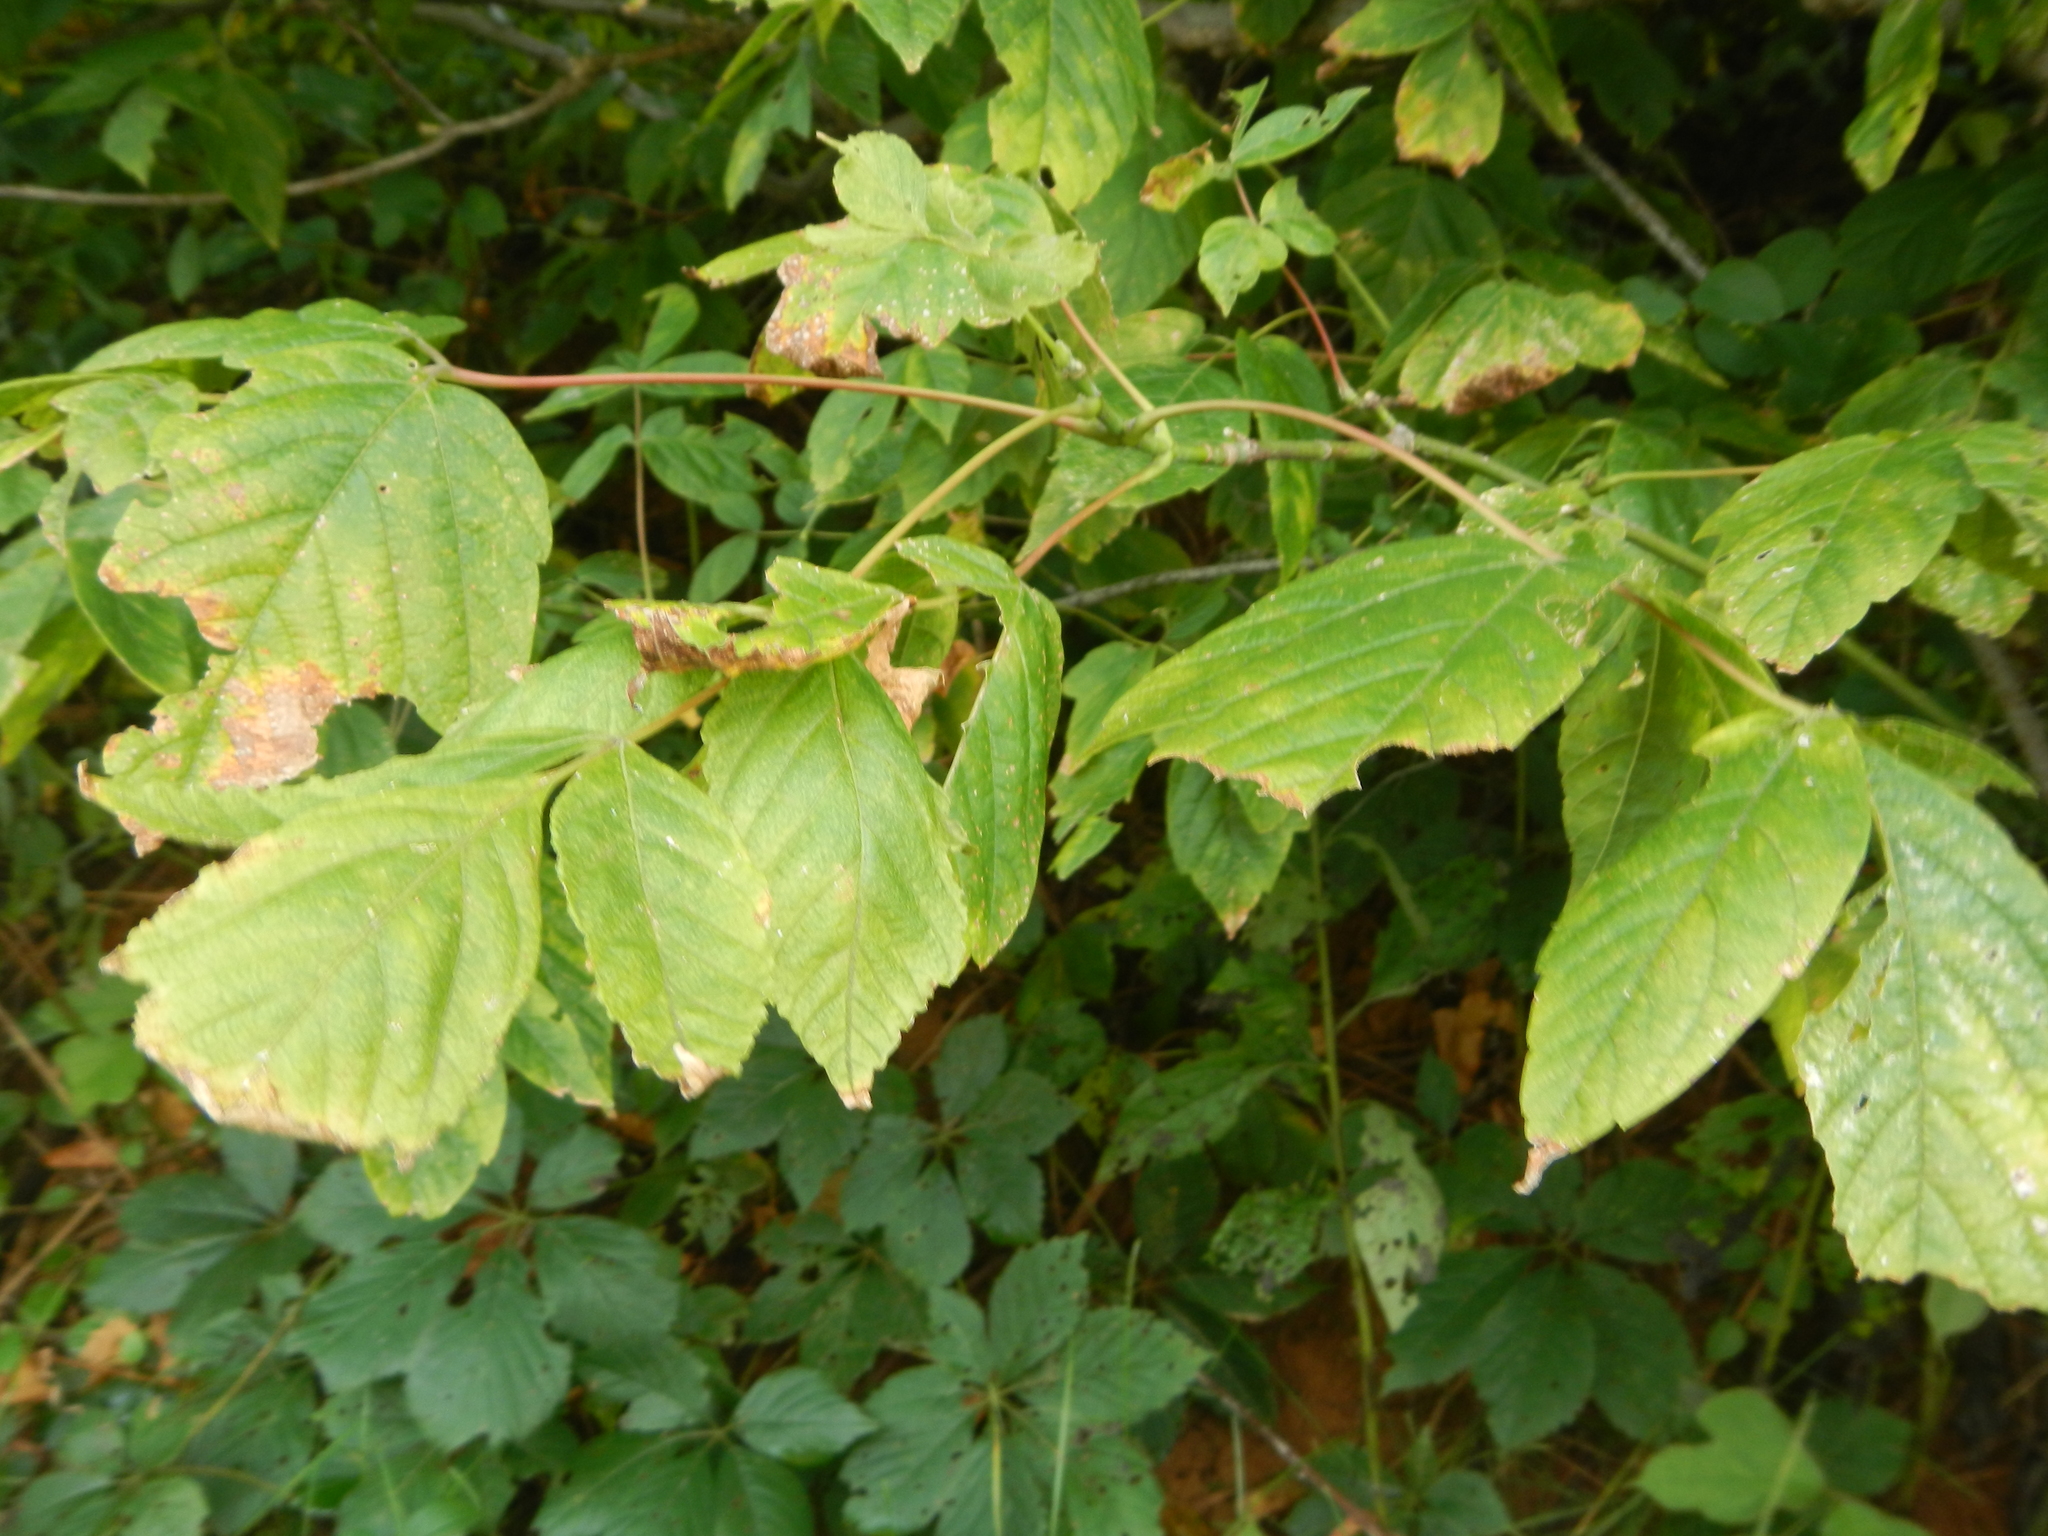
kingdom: Plantae
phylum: Tracheophyta
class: Magnoliopsida
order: Sapindales
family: Sapindaceae
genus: Acer
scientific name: Acer negundo
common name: Ashleaf maple
